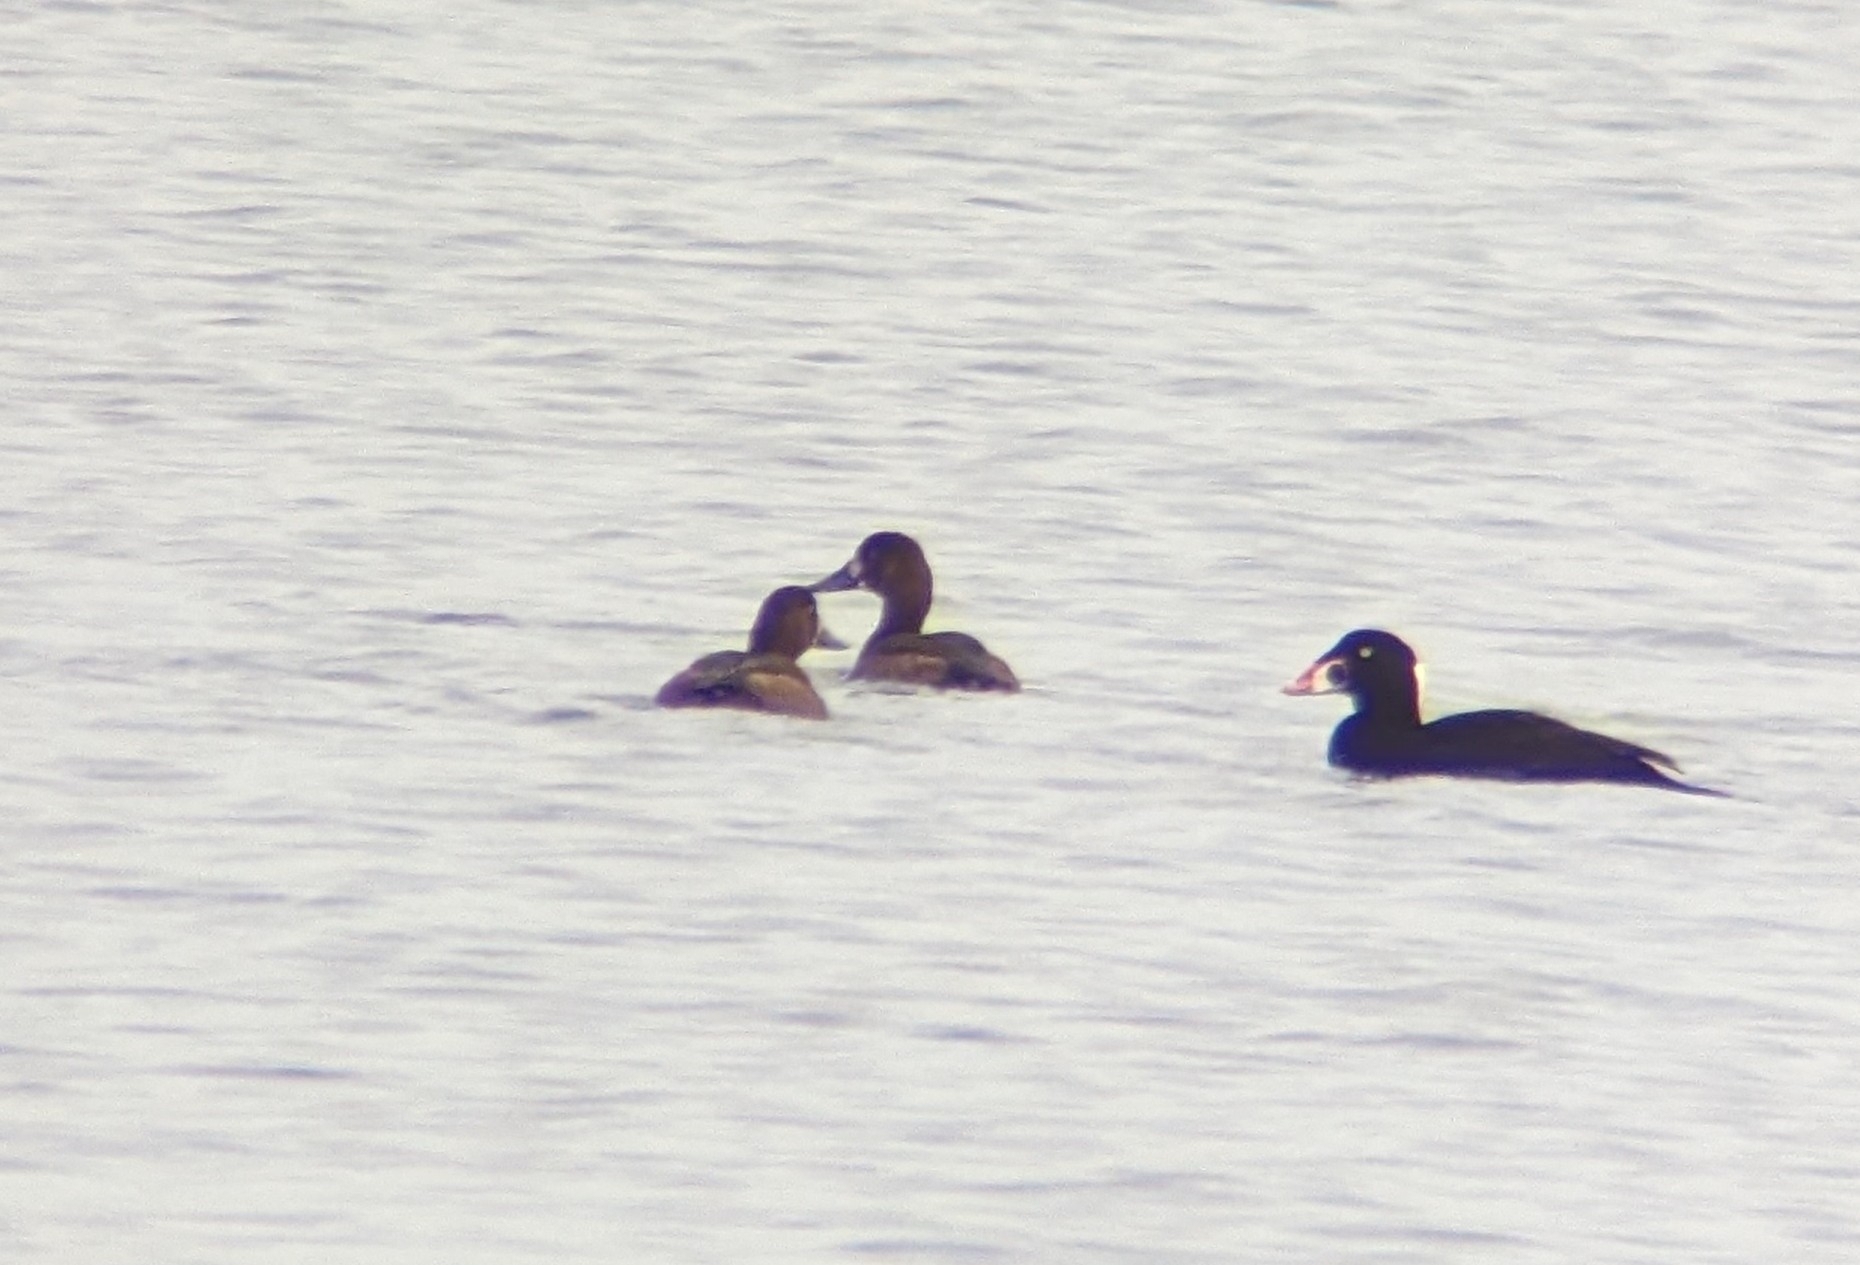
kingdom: Animalia
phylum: Chordata
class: Aves
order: Anseriformes
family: Anatidae
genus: Aythya
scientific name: Aythya marila
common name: Greater scaup
